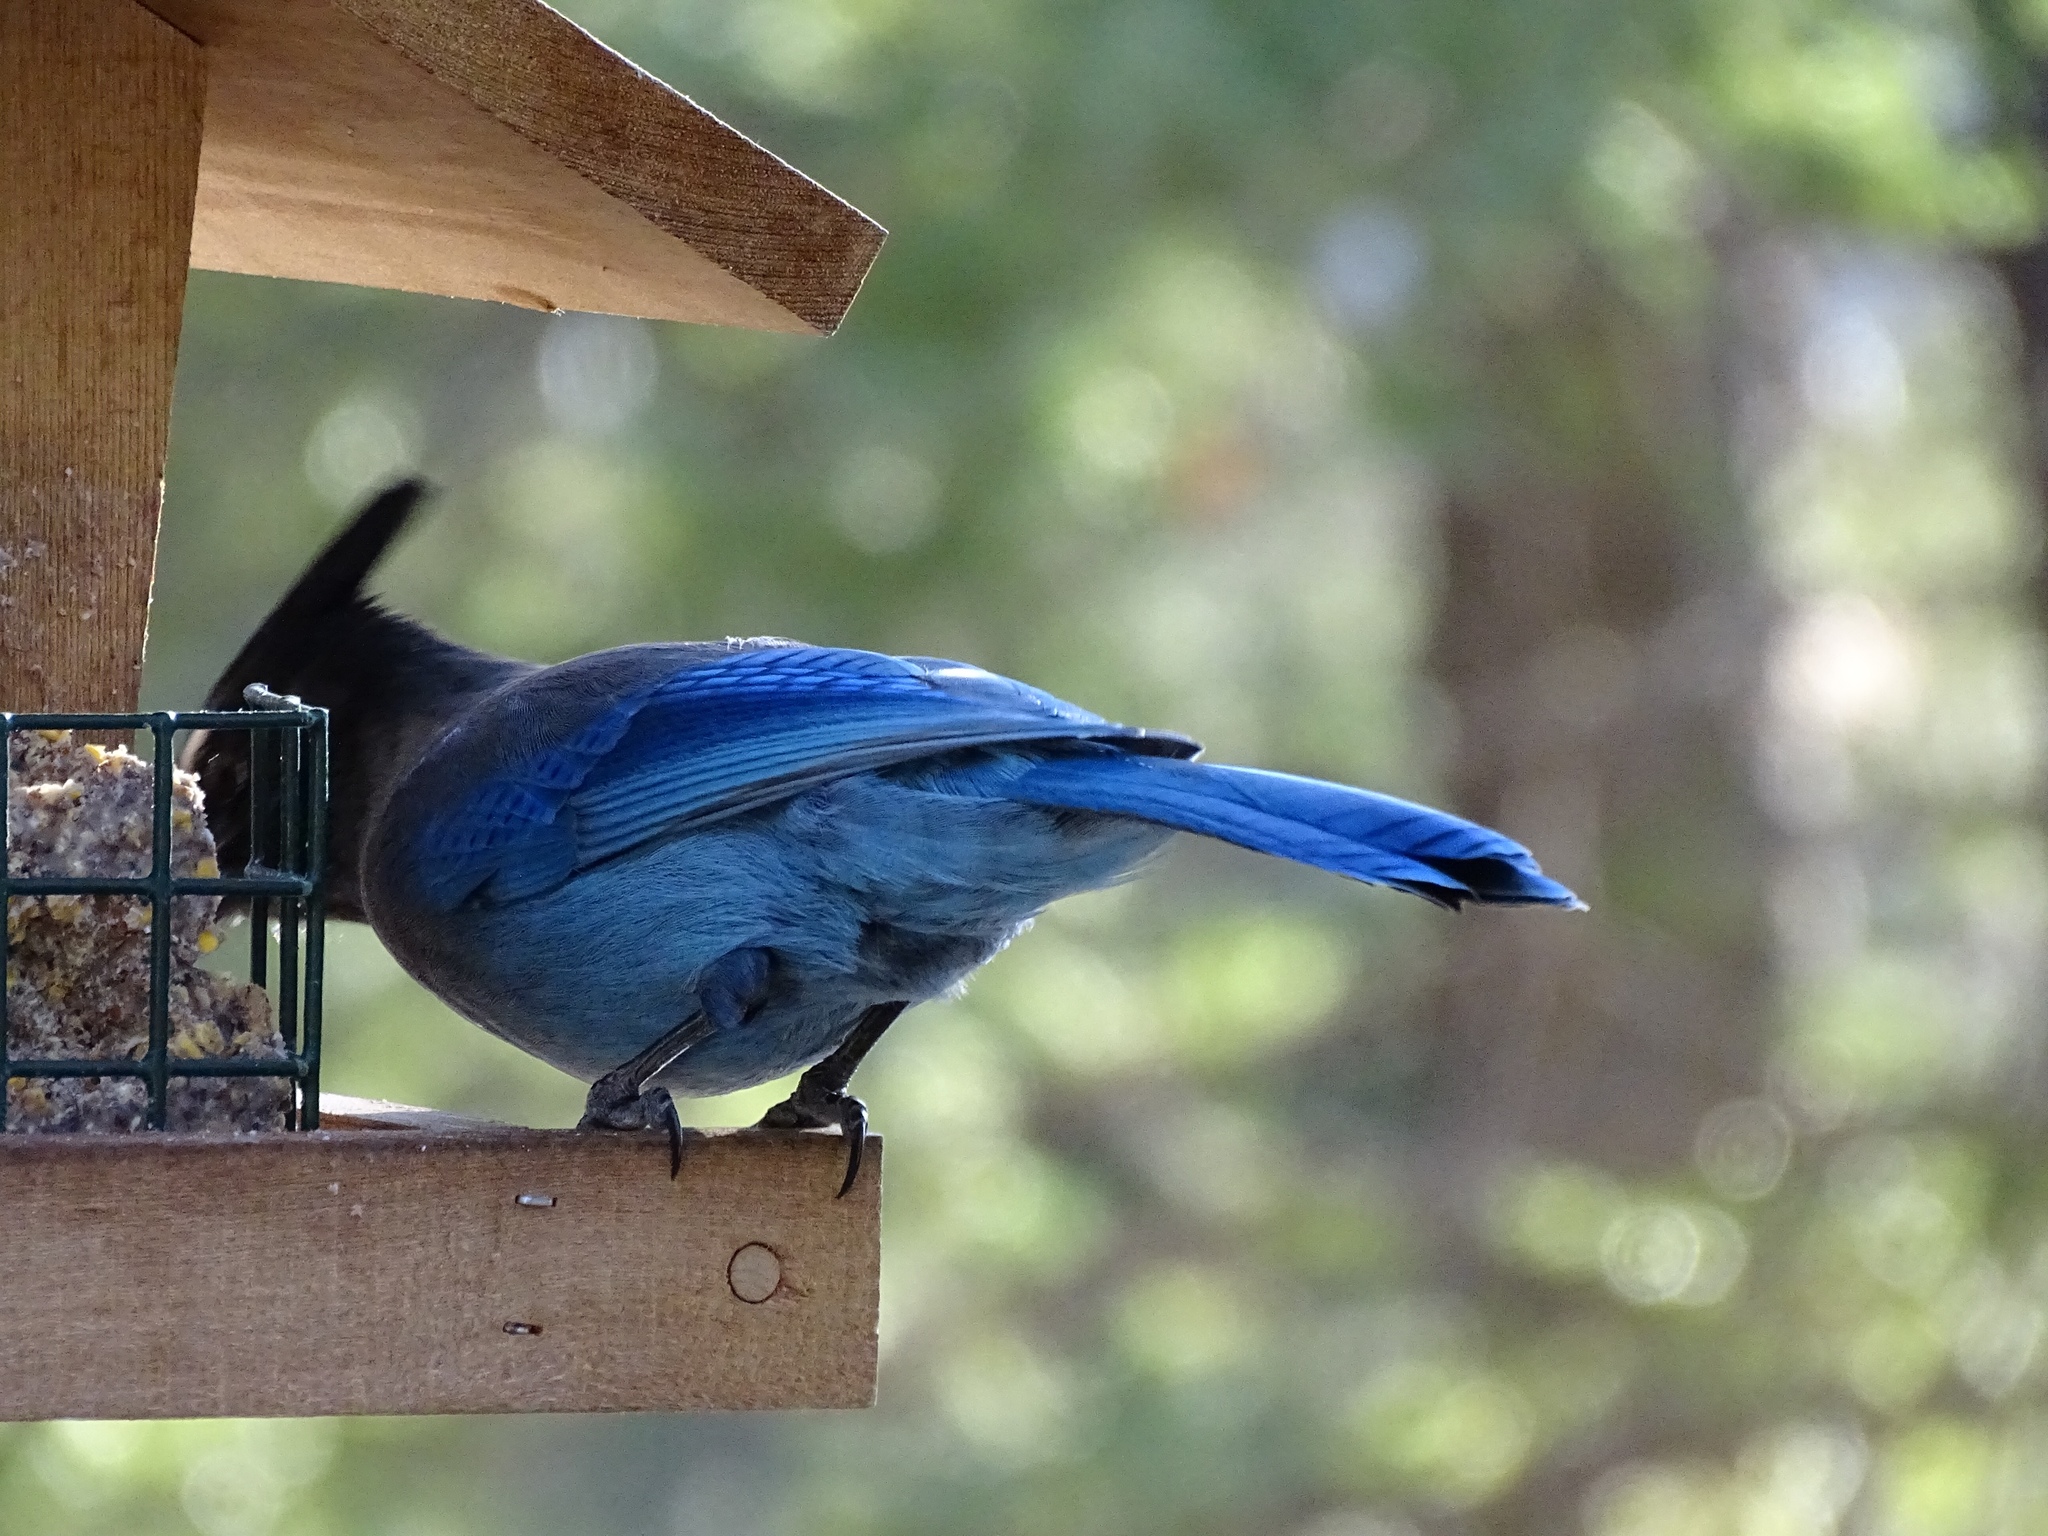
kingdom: Animalia
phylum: Chordata
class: Aves
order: Passeriformes
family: Corvidae
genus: Cyanocitta
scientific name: Cyanocitta stelleri
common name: Steller's jay
